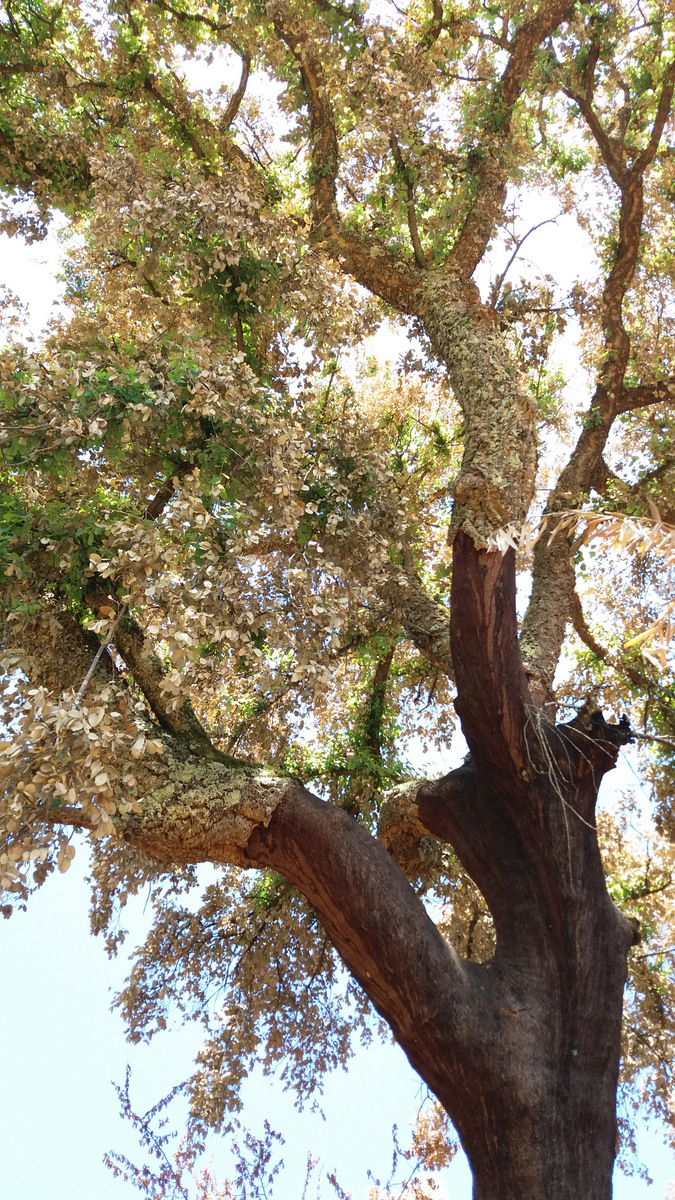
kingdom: Plantae
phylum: Tracheophyta
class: Magnoliopsida
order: Fagales
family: Fagaceae
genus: Quercus
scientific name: Quercus suber
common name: Cork oak
